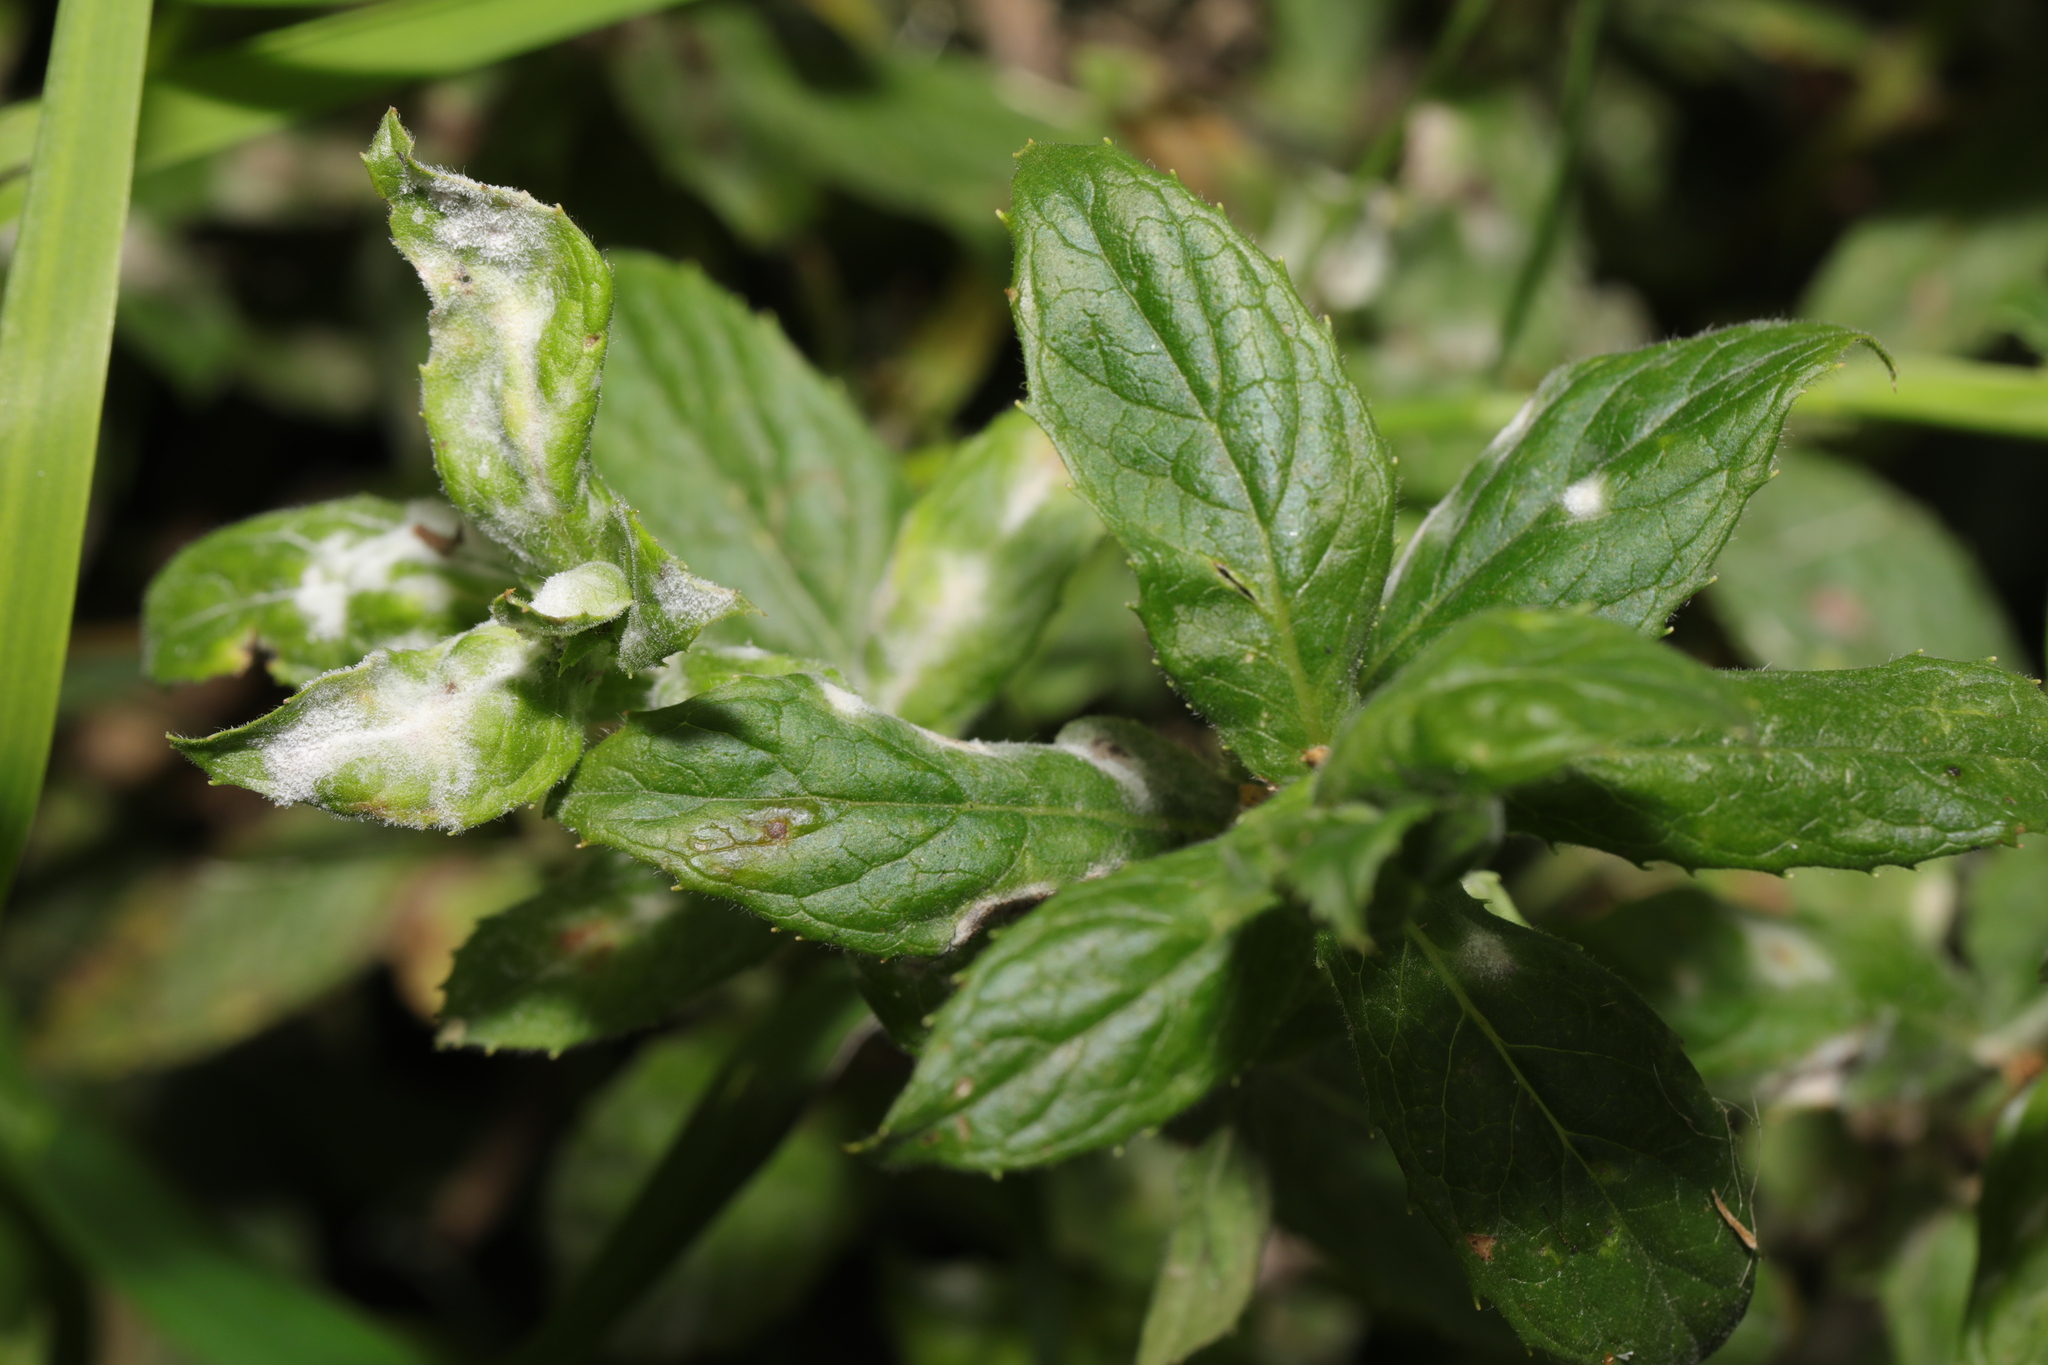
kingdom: Fungi
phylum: Ascomycota
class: Leotiomycetes
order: Helotiales
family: Erysiphaceae
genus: Podosphaera
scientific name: Podosphaera epilobii
